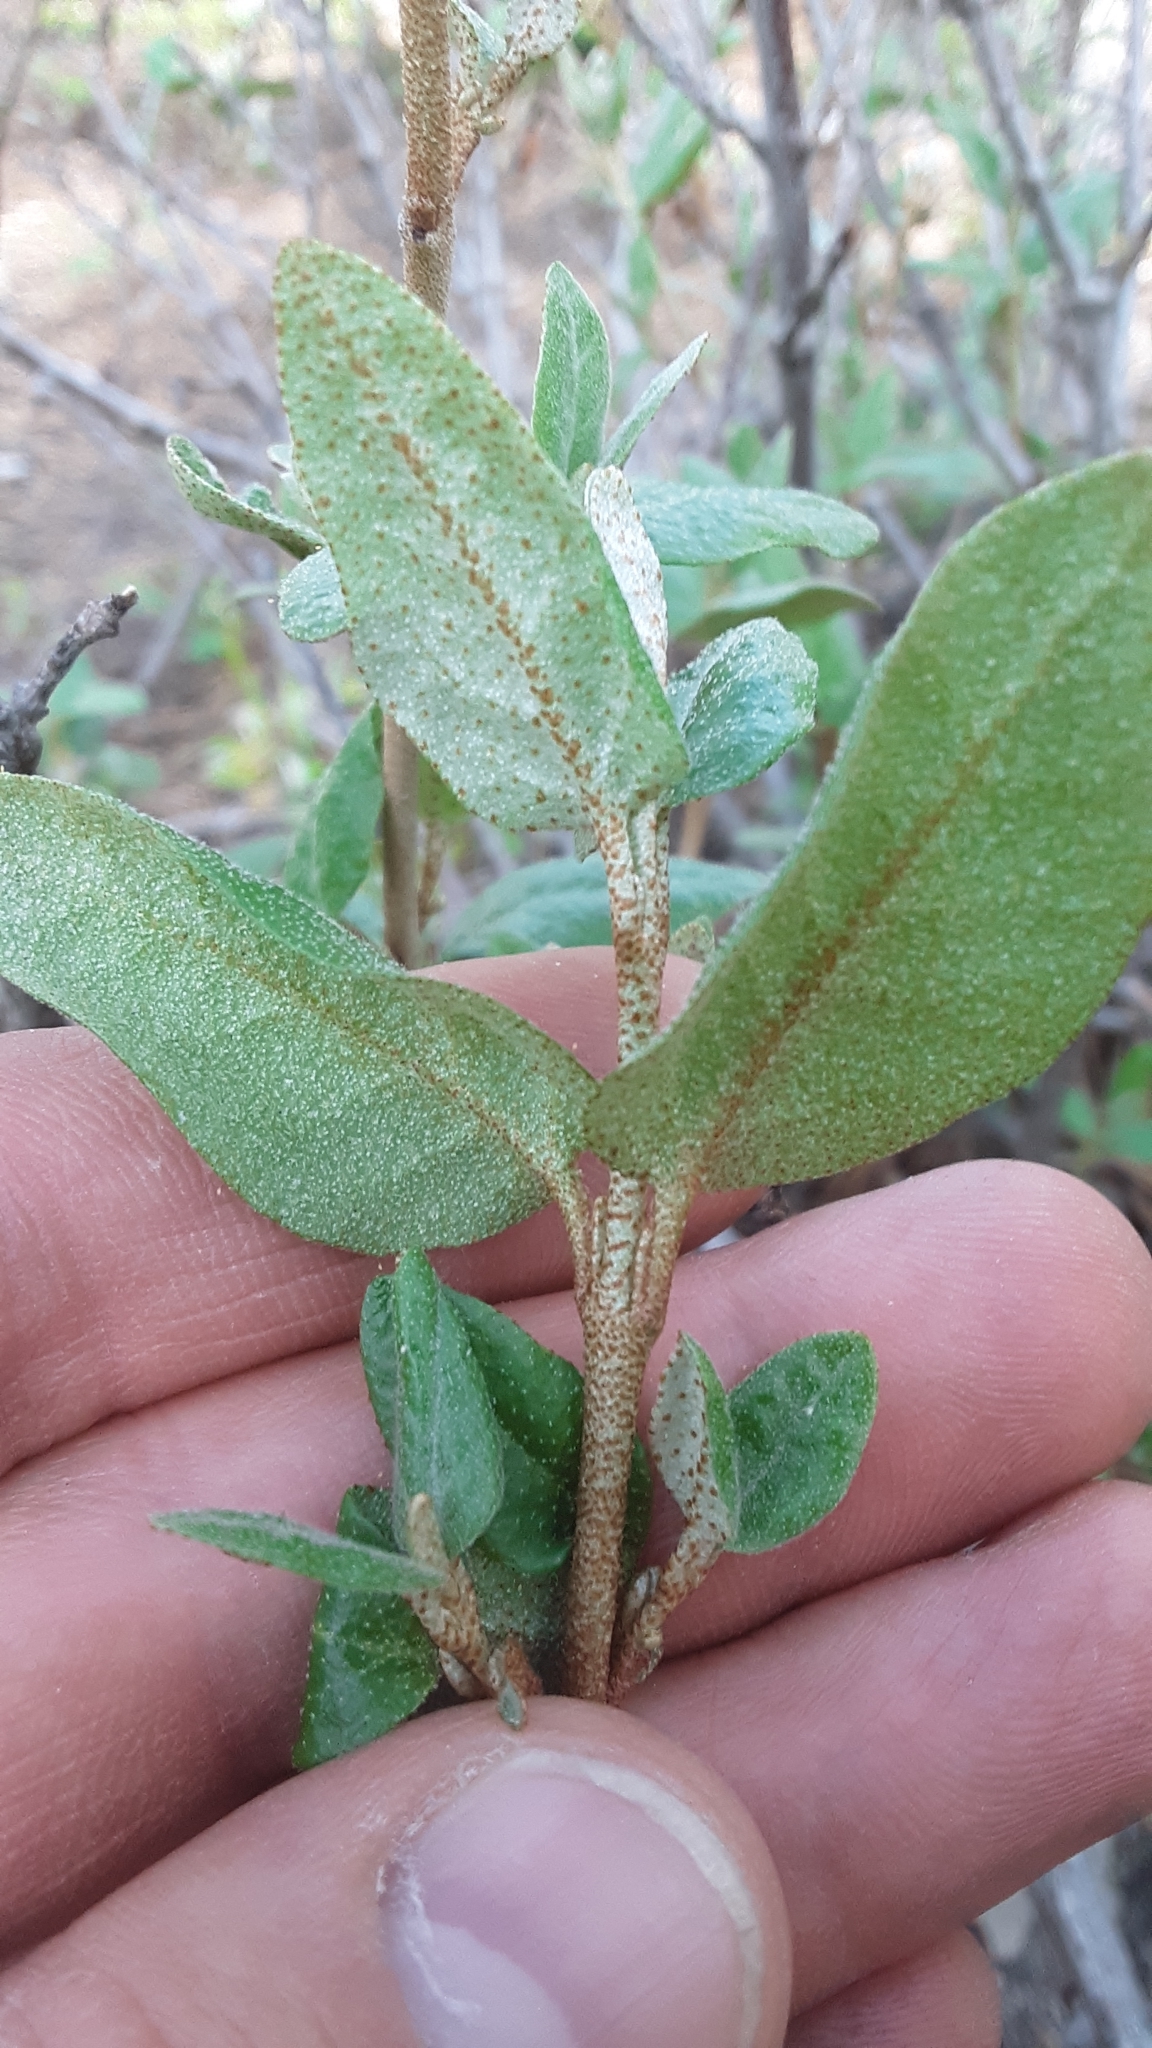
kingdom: Plantae
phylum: Tracheophyta
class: Magnoliopsida
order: Rosales
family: Elaeagnaceae
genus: Shepherdia
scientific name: Shepherdia canadensis
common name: Soapberry
